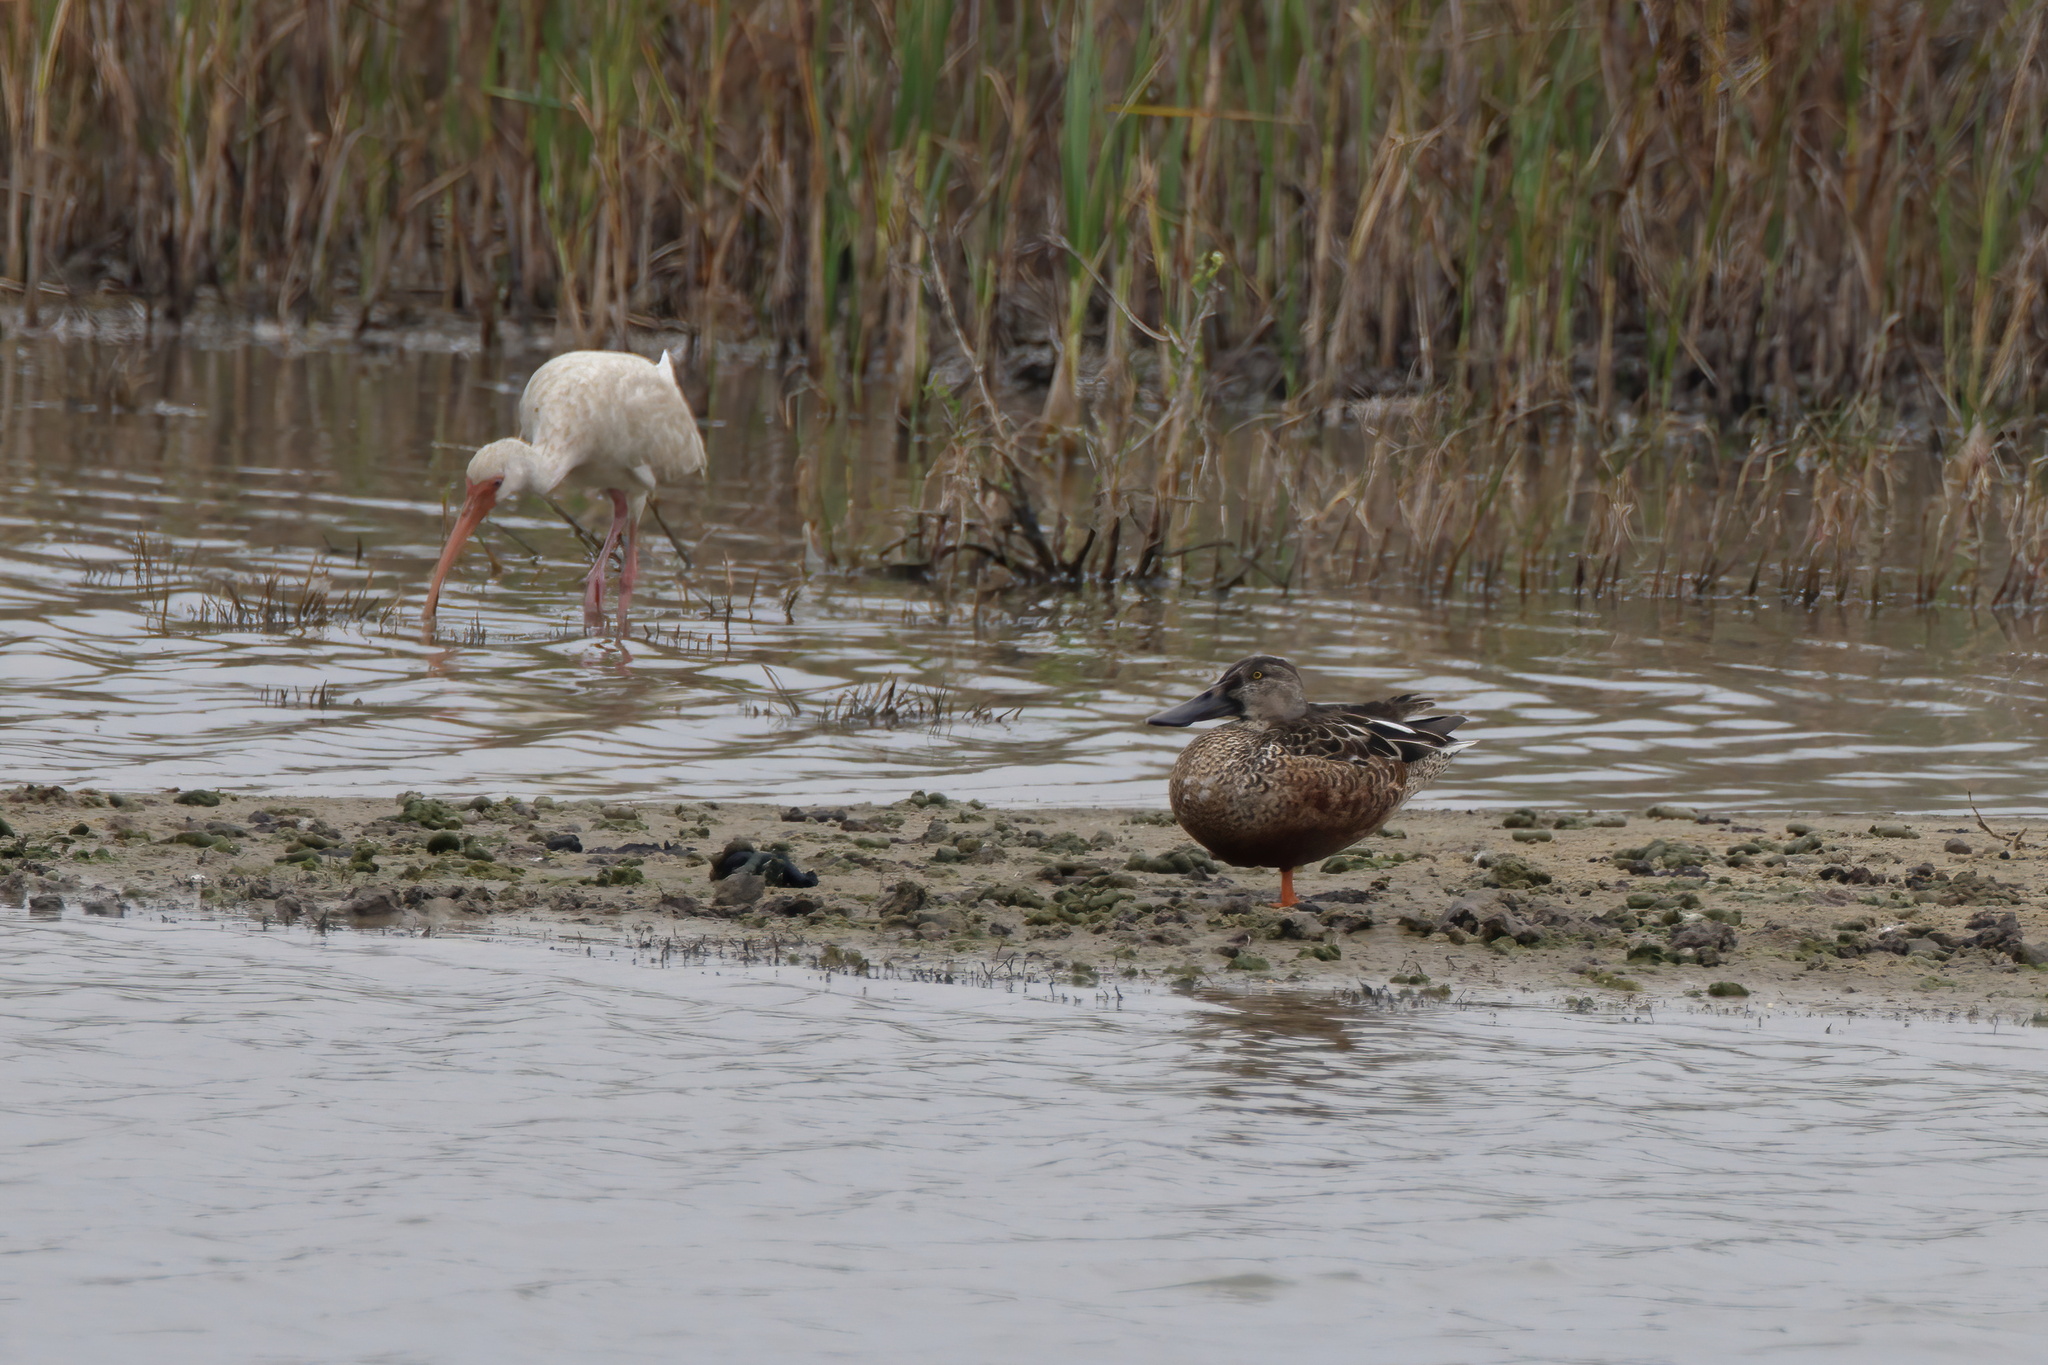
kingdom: Animalia
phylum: Chordata
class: Aves
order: Anseriformes
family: Anatidae
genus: Spatula
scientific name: Spatula clypeata
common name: Northern shoveler
